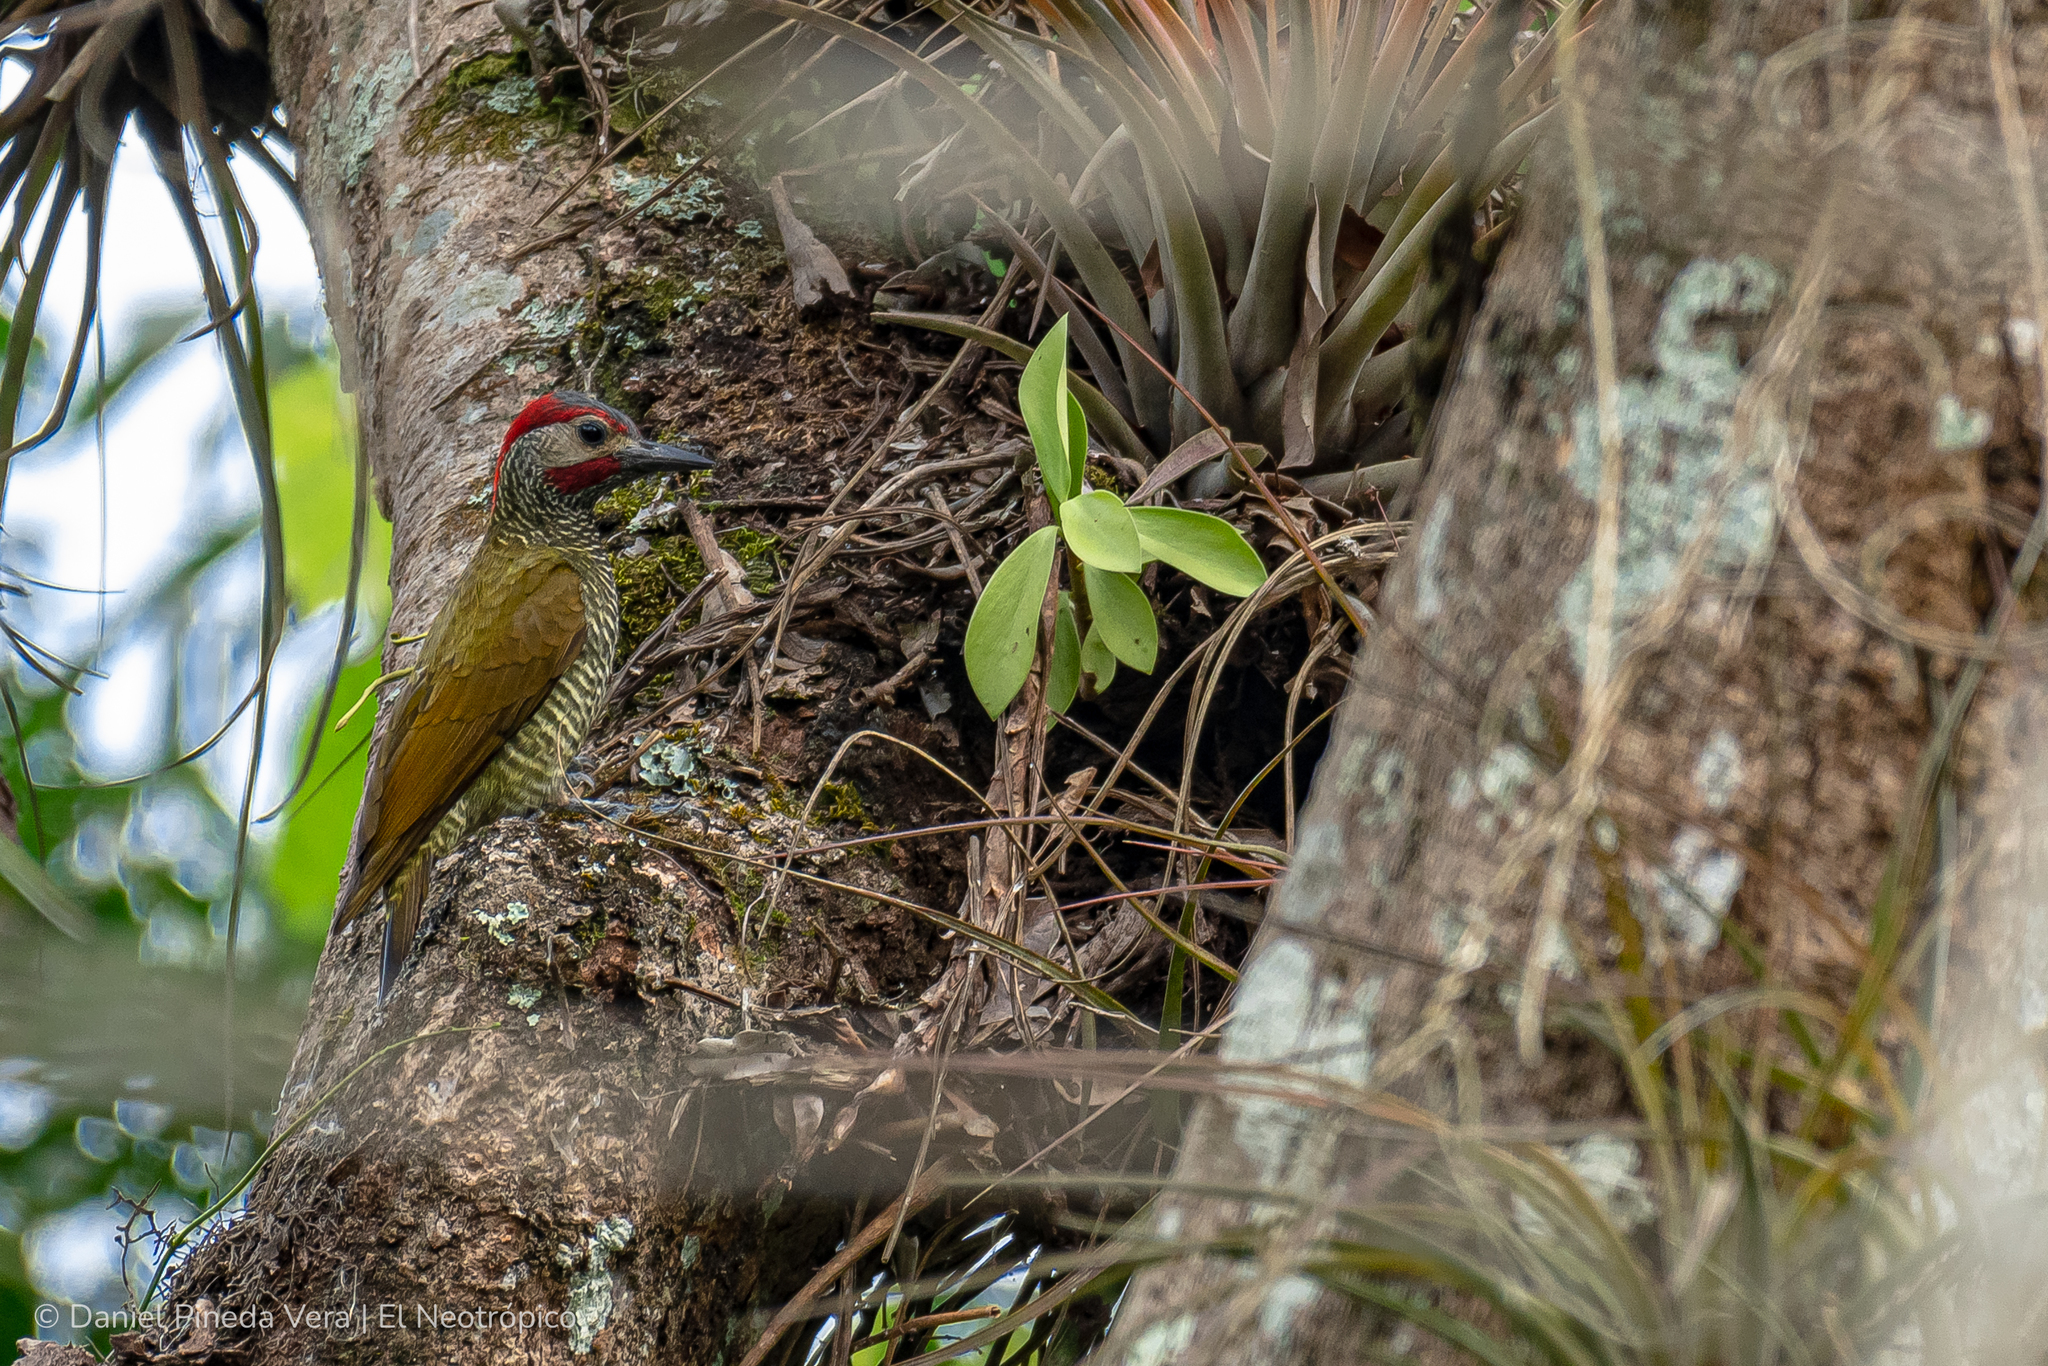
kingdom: Animalia
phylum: Chordata
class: Aves
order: Piciformes
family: Picidae
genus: Colaptes
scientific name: Colaptes rubiginosus
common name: Golden-olive woodpecker
